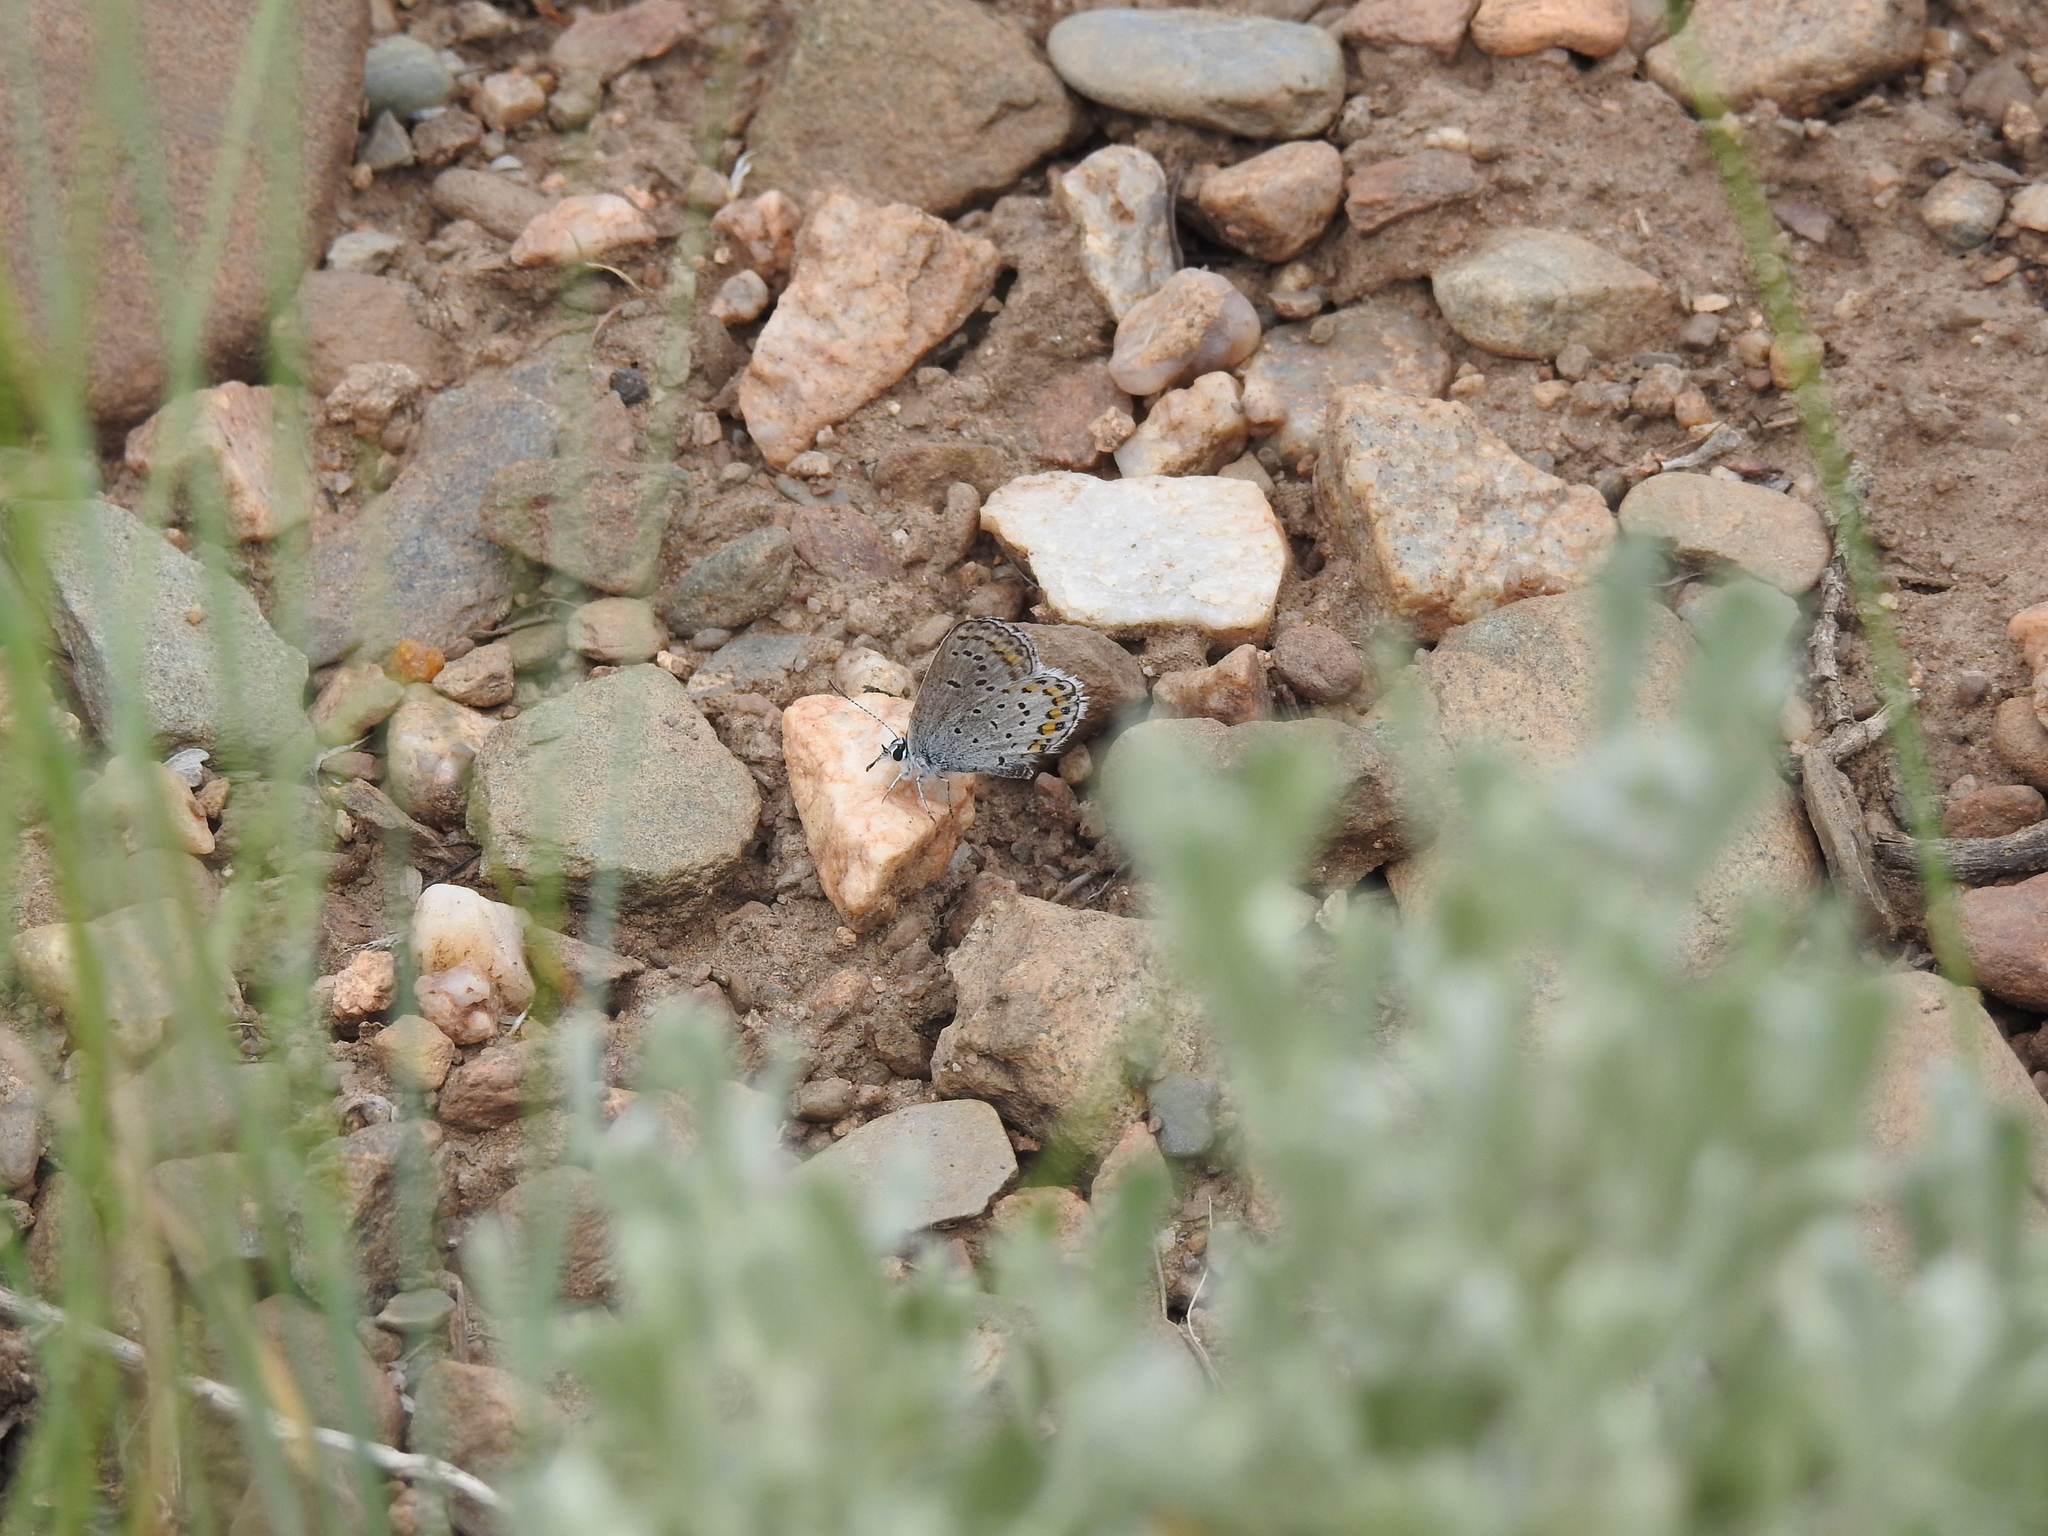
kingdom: Animalia
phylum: Arthropoda
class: Insecta
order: Lepidoptera
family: Lycaenidae
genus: Lycaeides
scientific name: Lycaeides melissa
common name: Melissa blue
